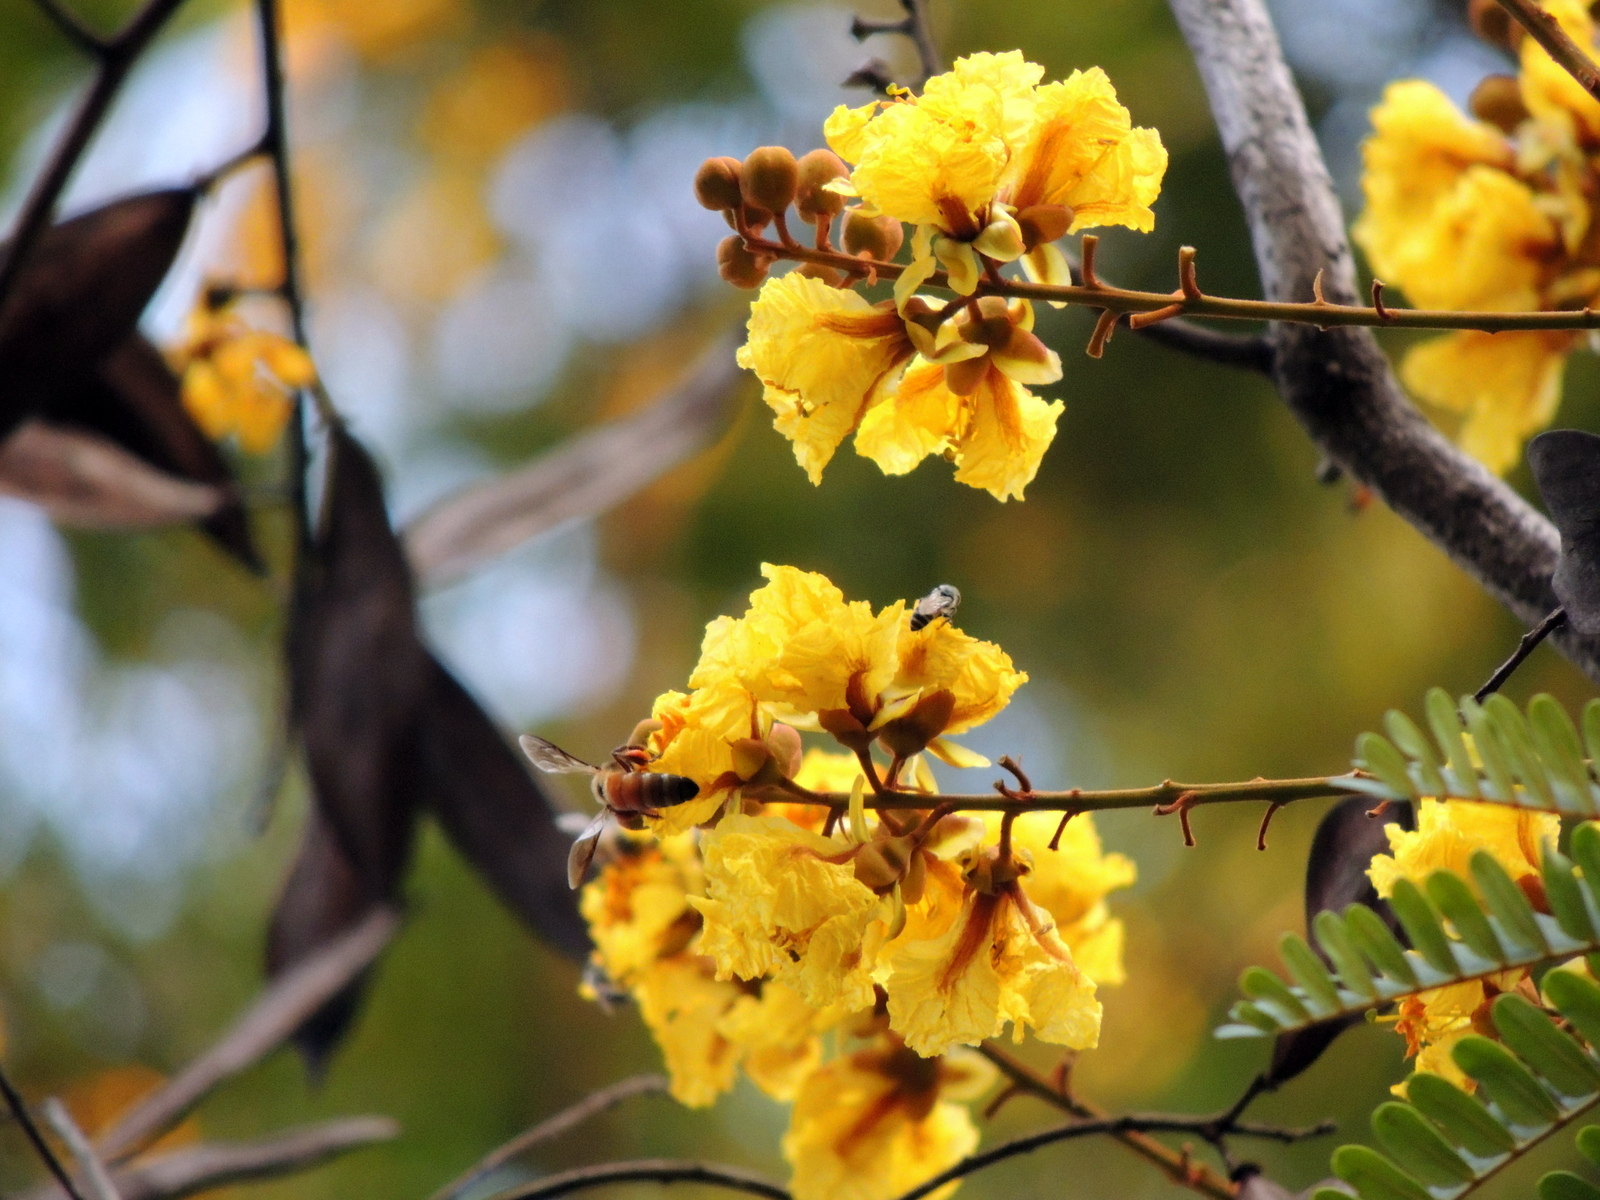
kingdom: Animalia
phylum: Arthropoda
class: Insecta
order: Hymenoptera
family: Apidae
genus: Apis
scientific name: Apis dorsata
